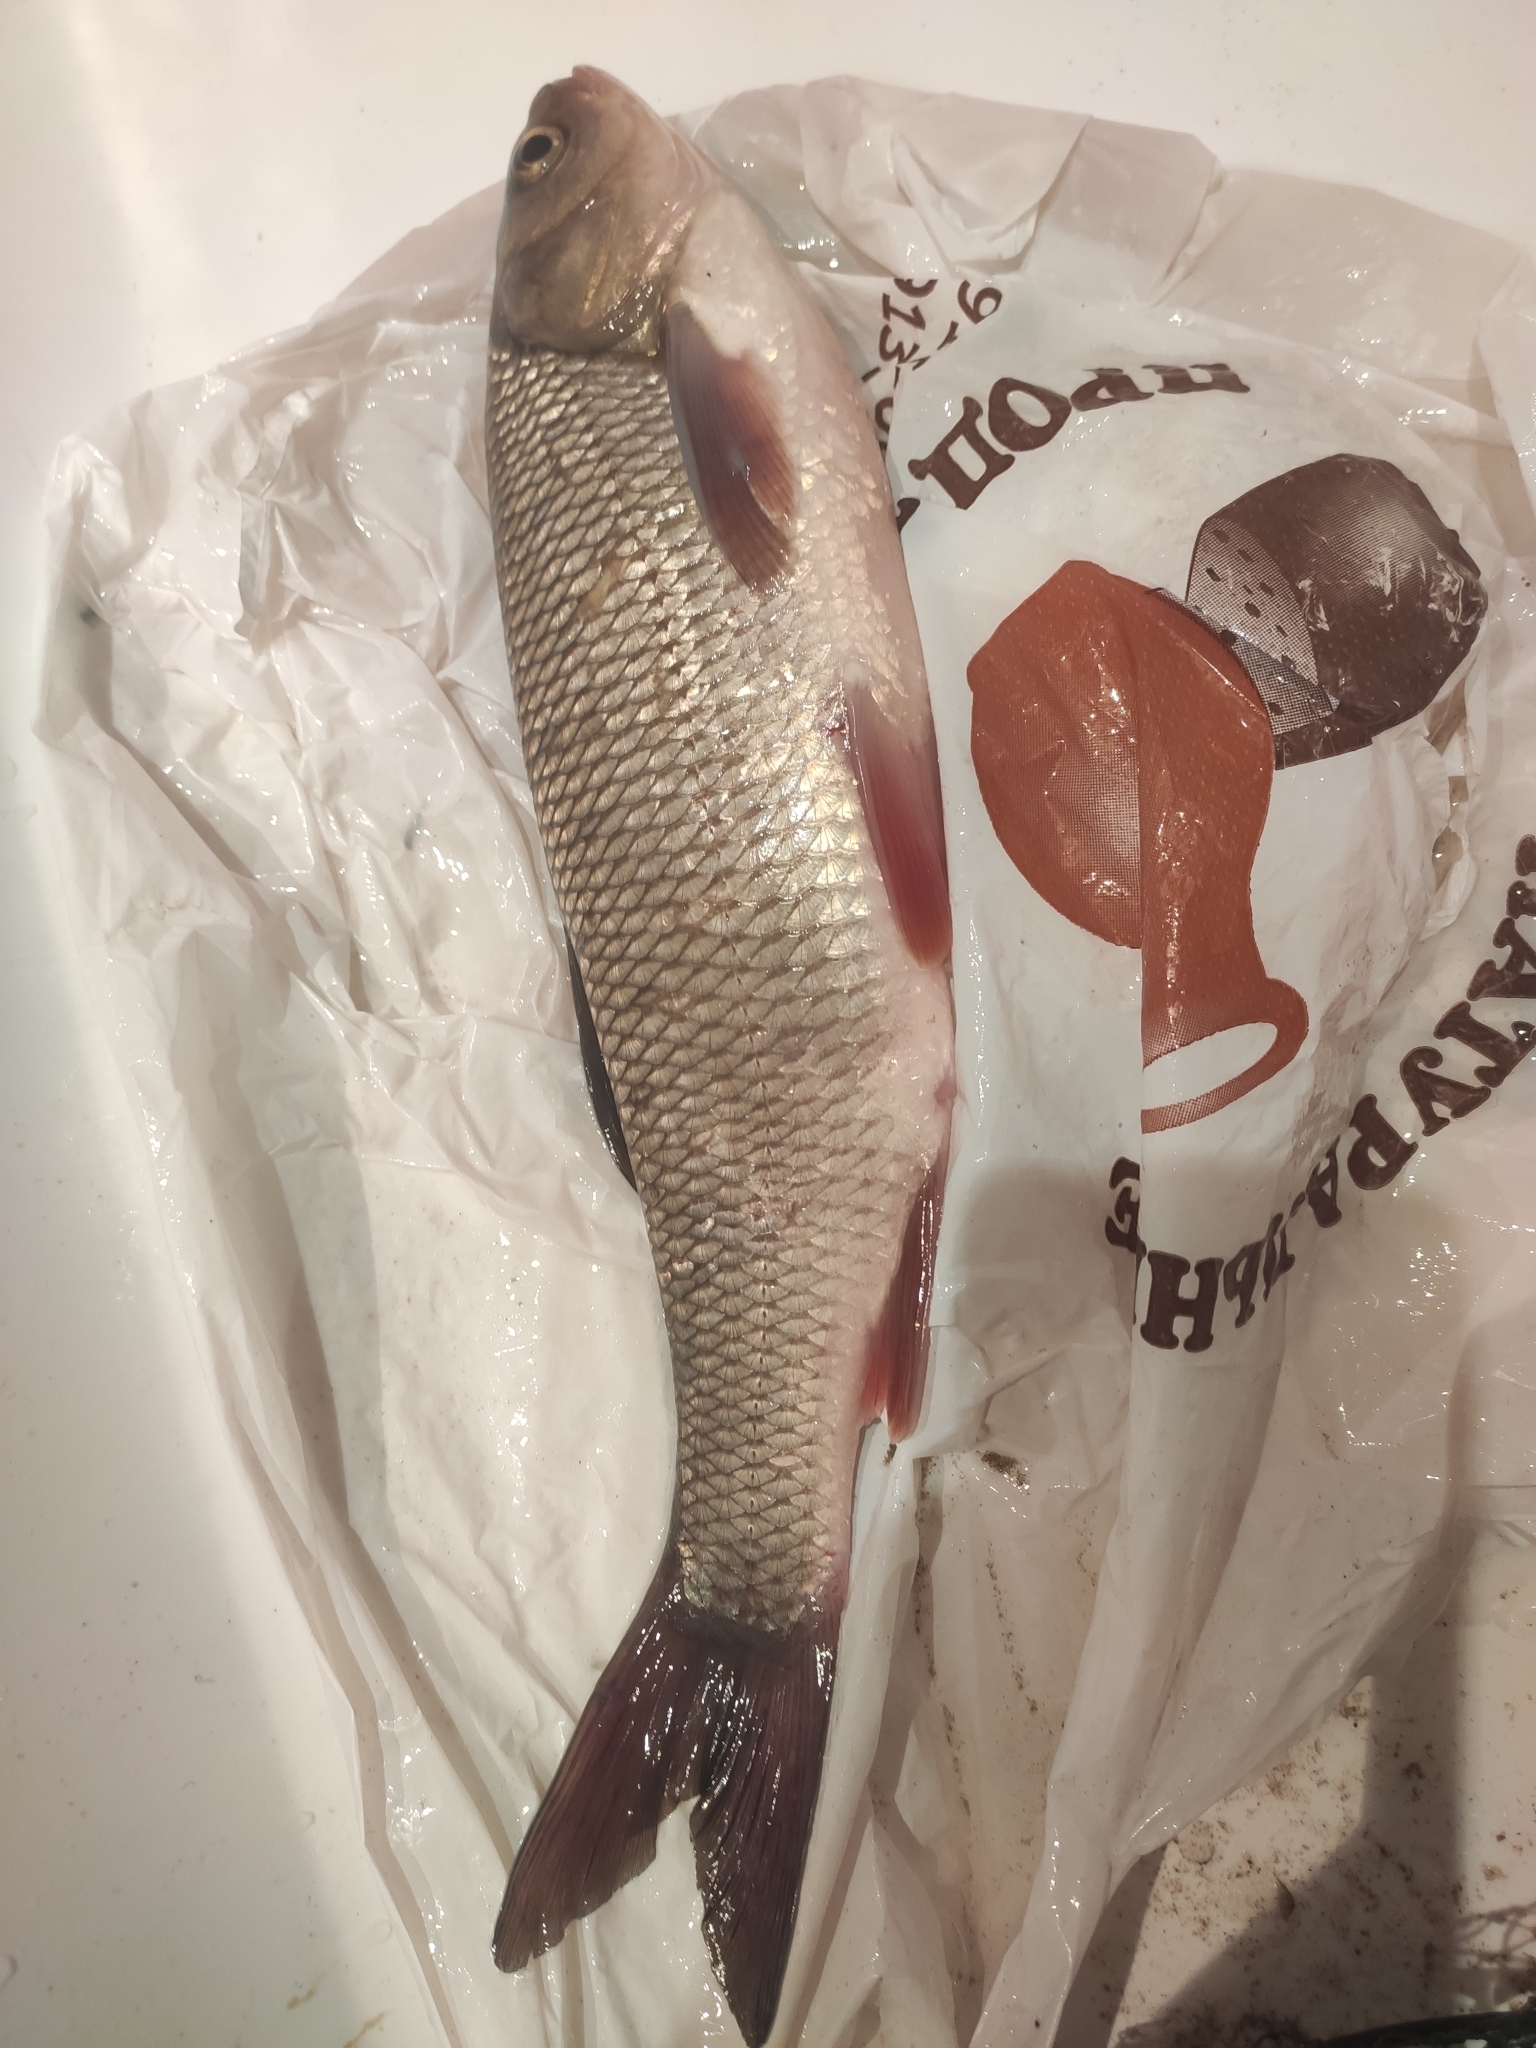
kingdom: Animalia
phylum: Chordata
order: Cypriniformes
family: Cyprinidae
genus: Leuciscus
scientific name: Leuciscus idus
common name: Ide
